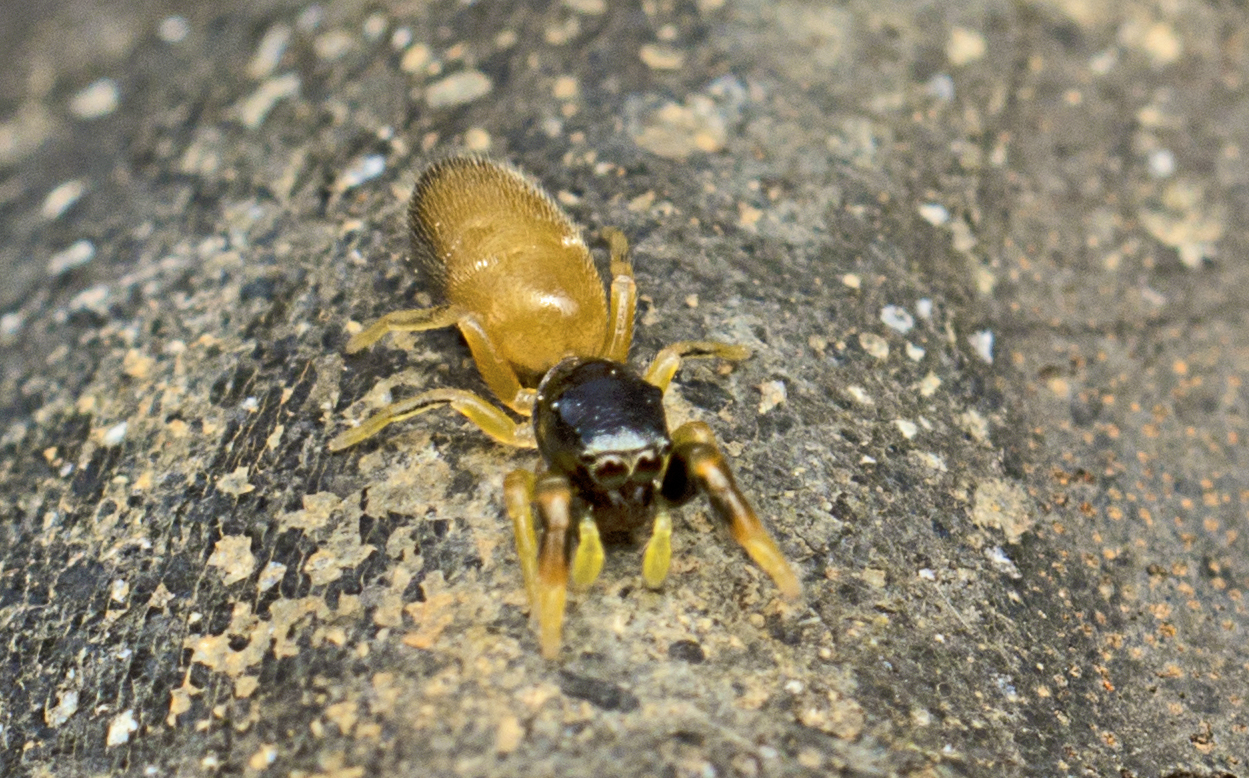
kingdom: Animalia
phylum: Arthropoda
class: Arachnida
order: Araneae
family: Salticidae
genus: Judalana
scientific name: Judalana lutea
